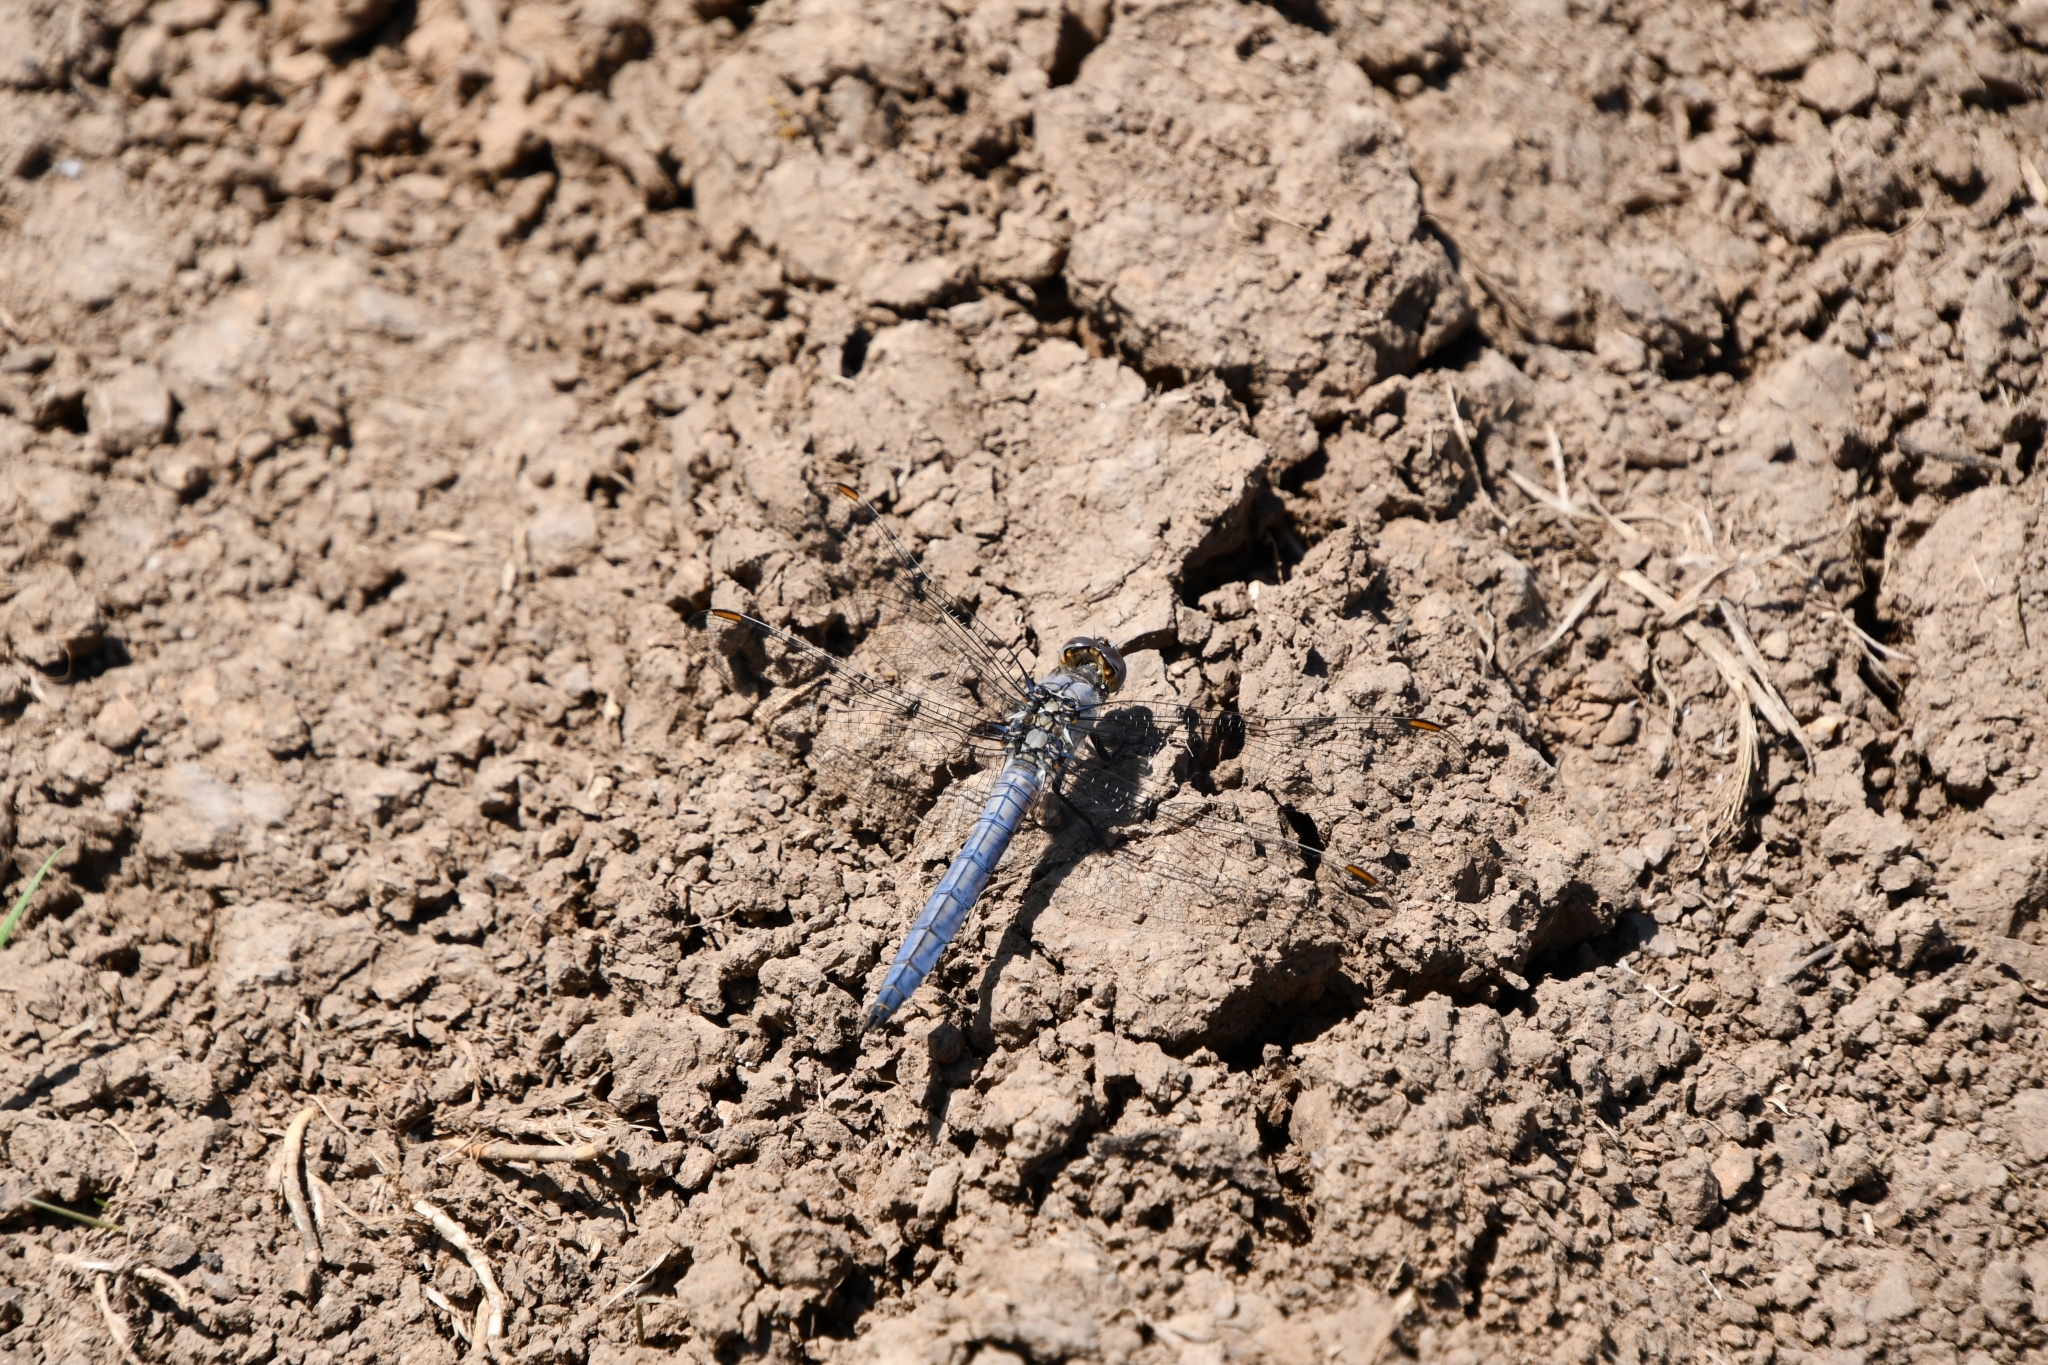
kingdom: Animalia
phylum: Arthropoda
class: Insecta
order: Odonata
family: Libellulidae
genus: Orthetrum
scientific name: Orthetrum brunneum
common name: Southern skimmer
